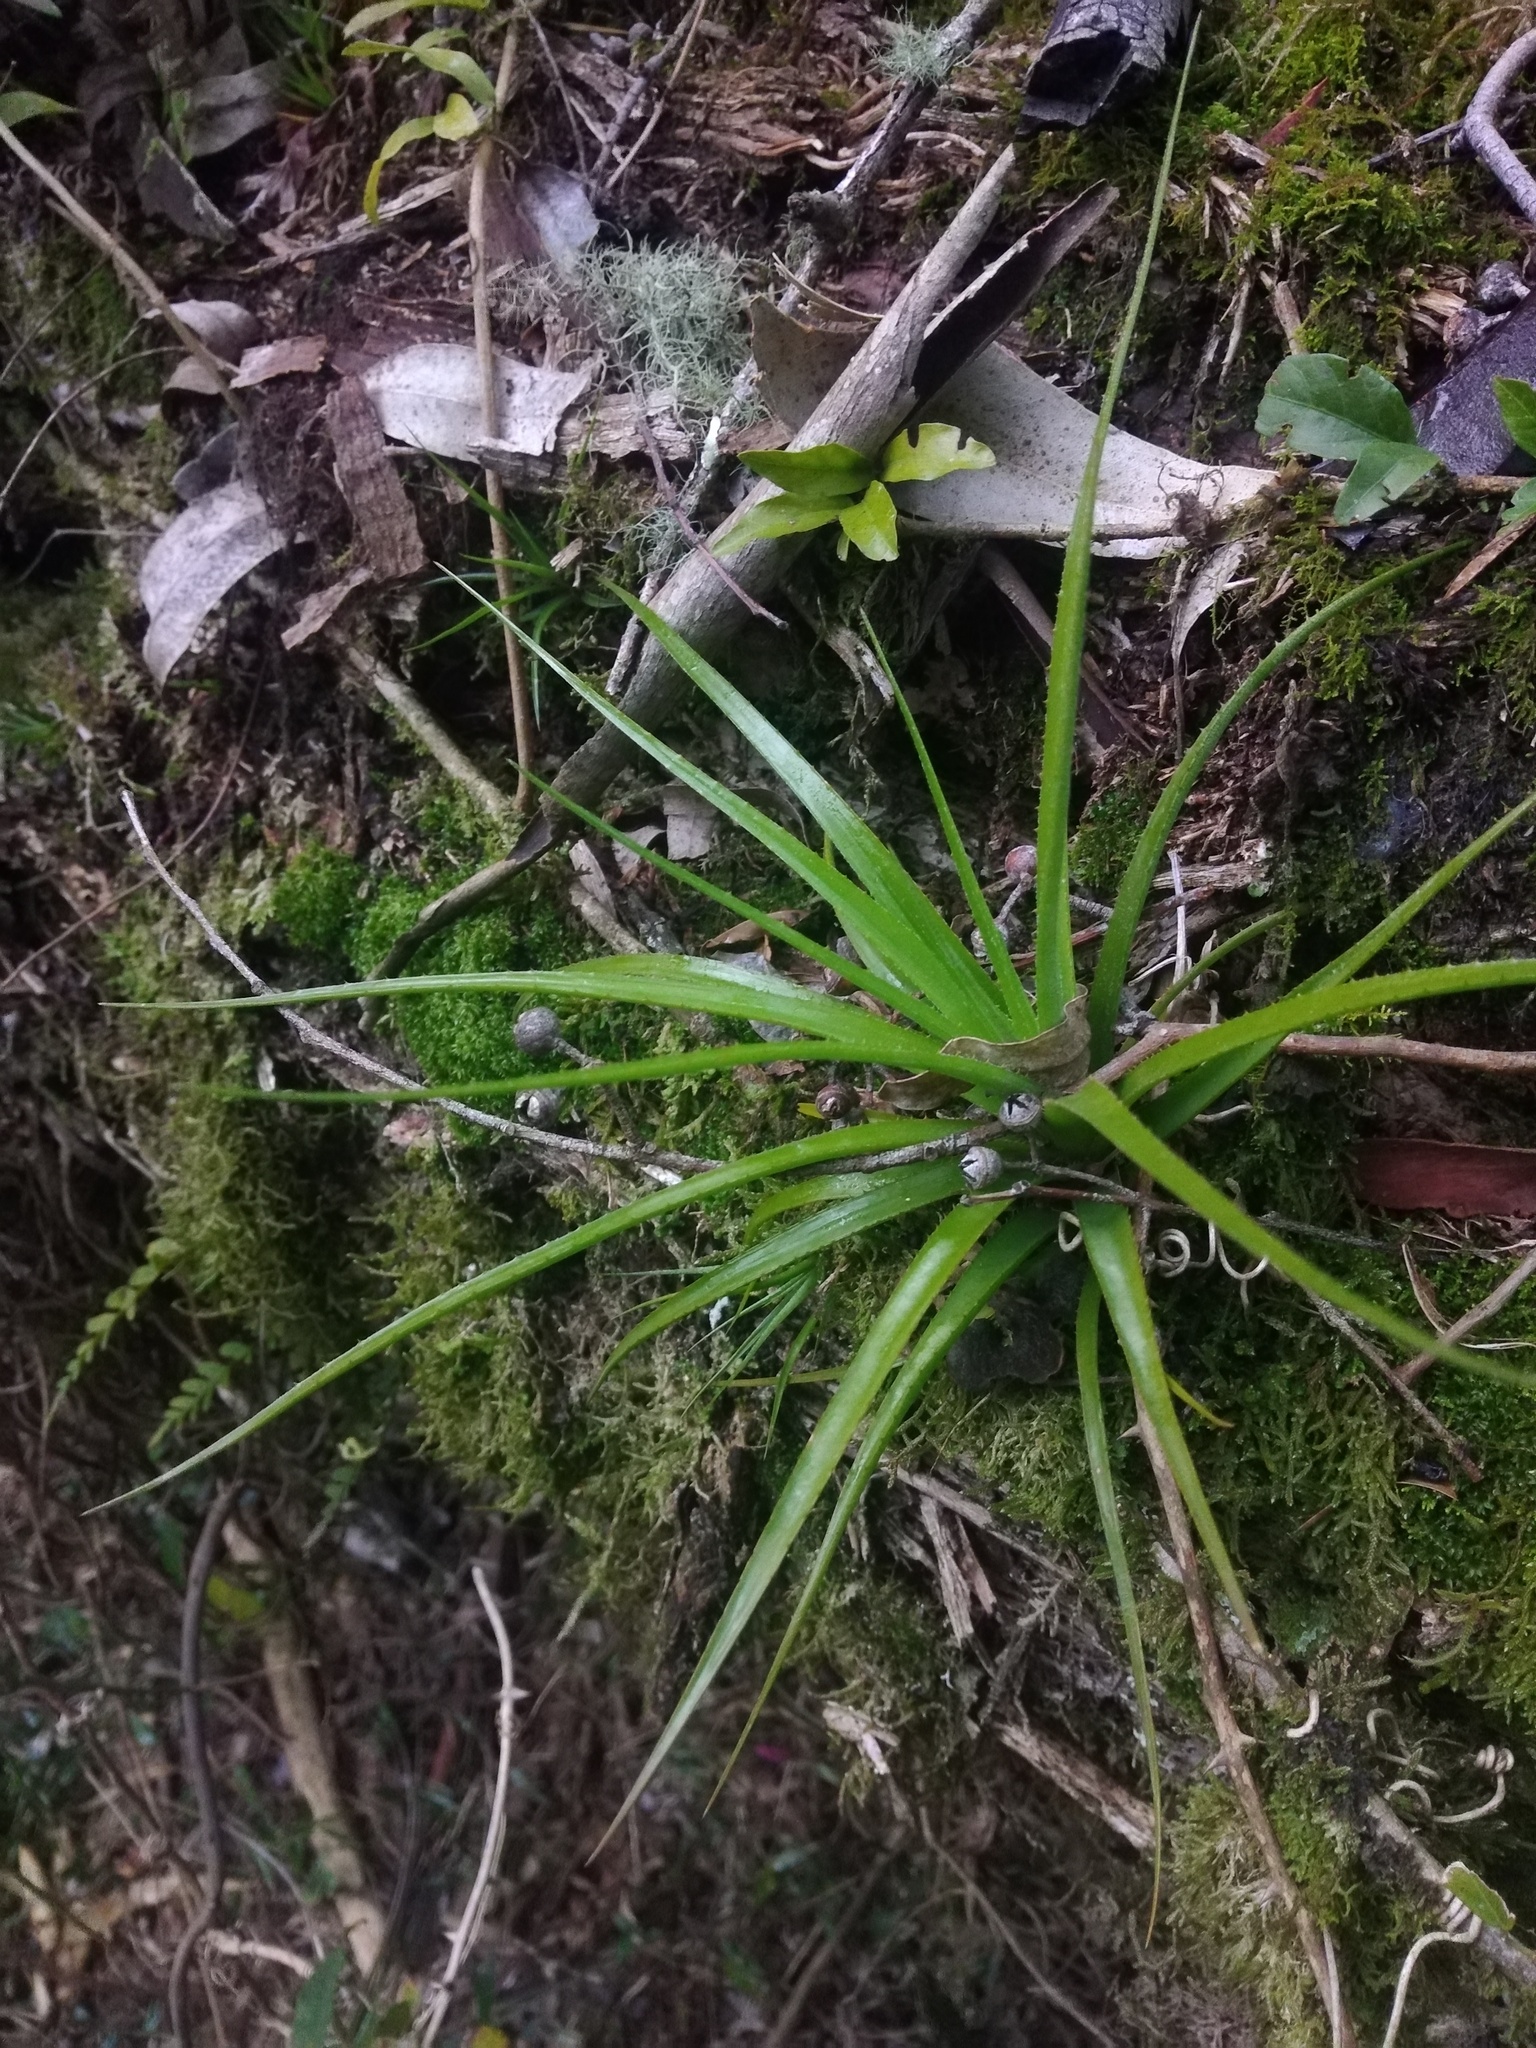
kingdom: Plantae
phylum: Tracheophyta
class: Liliopsida
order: Poales
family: Bromeliaceae
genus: Aechmea
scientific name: Aechmea recurvata
